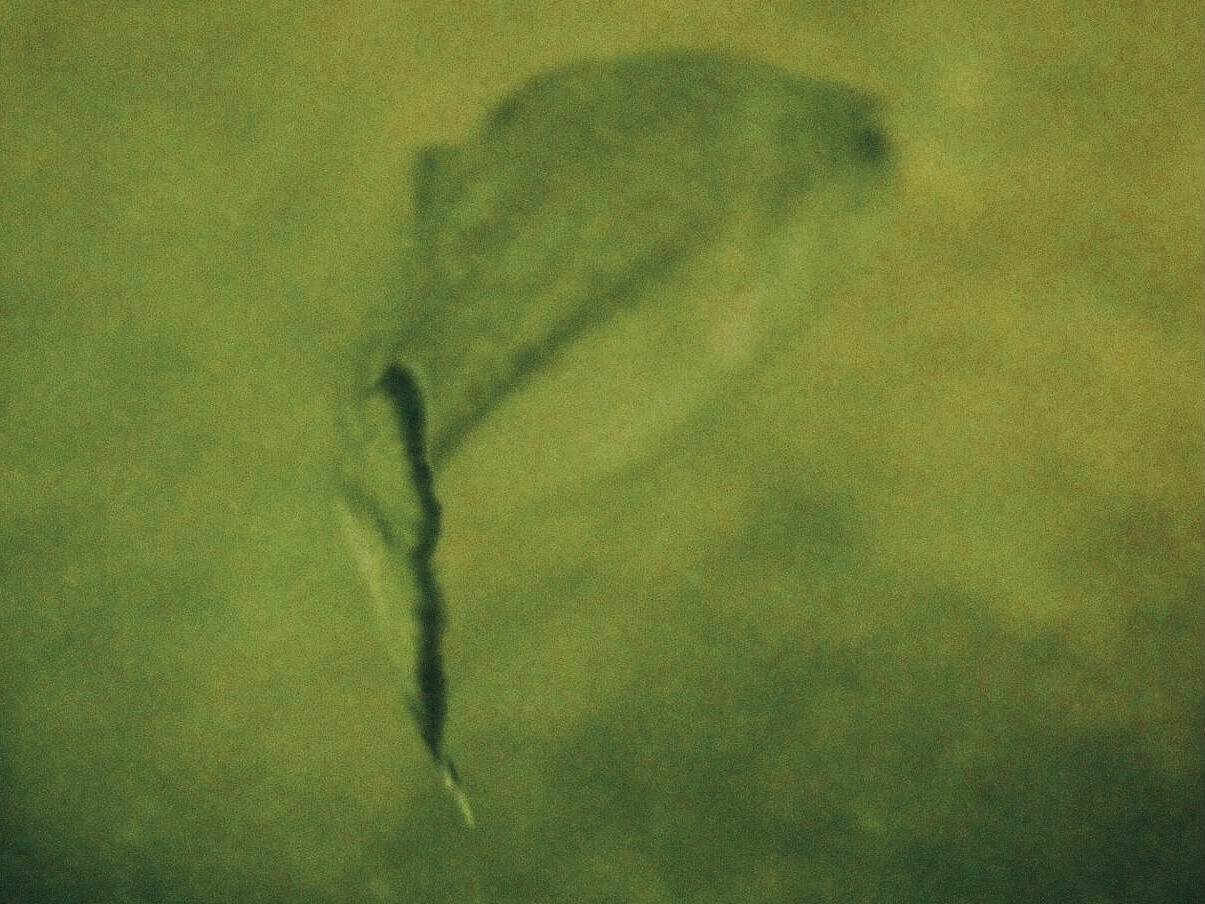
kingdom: Animalia
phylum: Chordata
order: Perciformes
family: Centrarchidae
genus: Micropterus
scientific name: Micropterus
